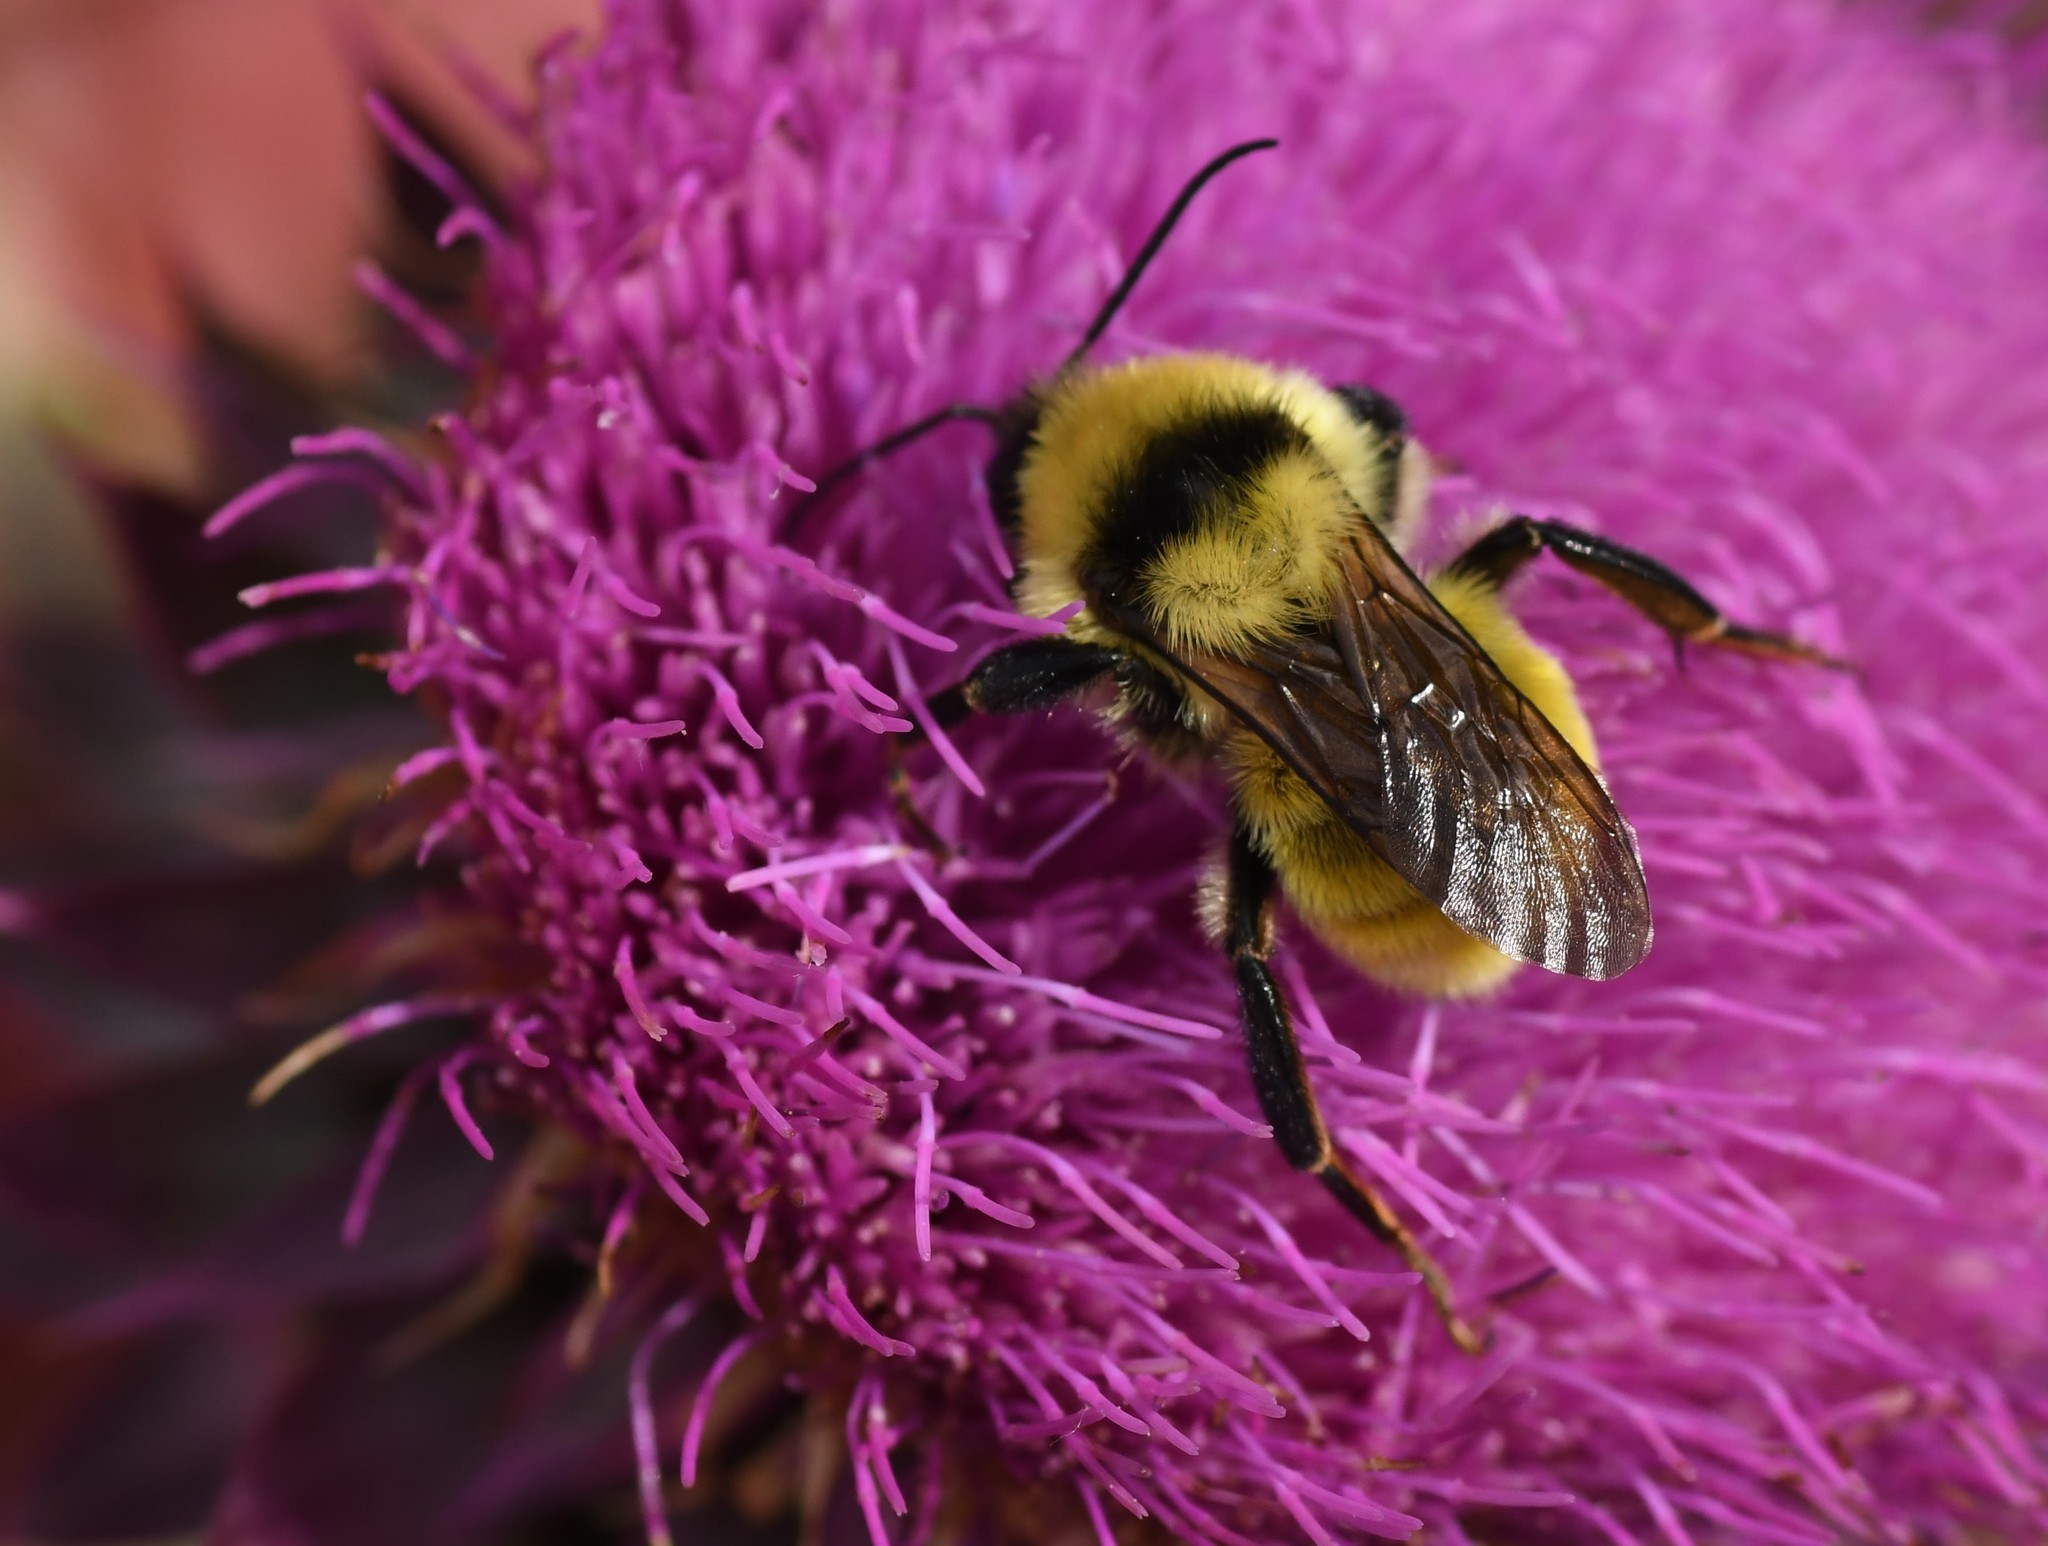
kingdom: Animalia
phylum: Arthropoda
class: Insecta
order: Hymenoptera
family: Apidae
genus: Bombus
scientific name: Bombus fervidus
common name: Yellow bumble bee
